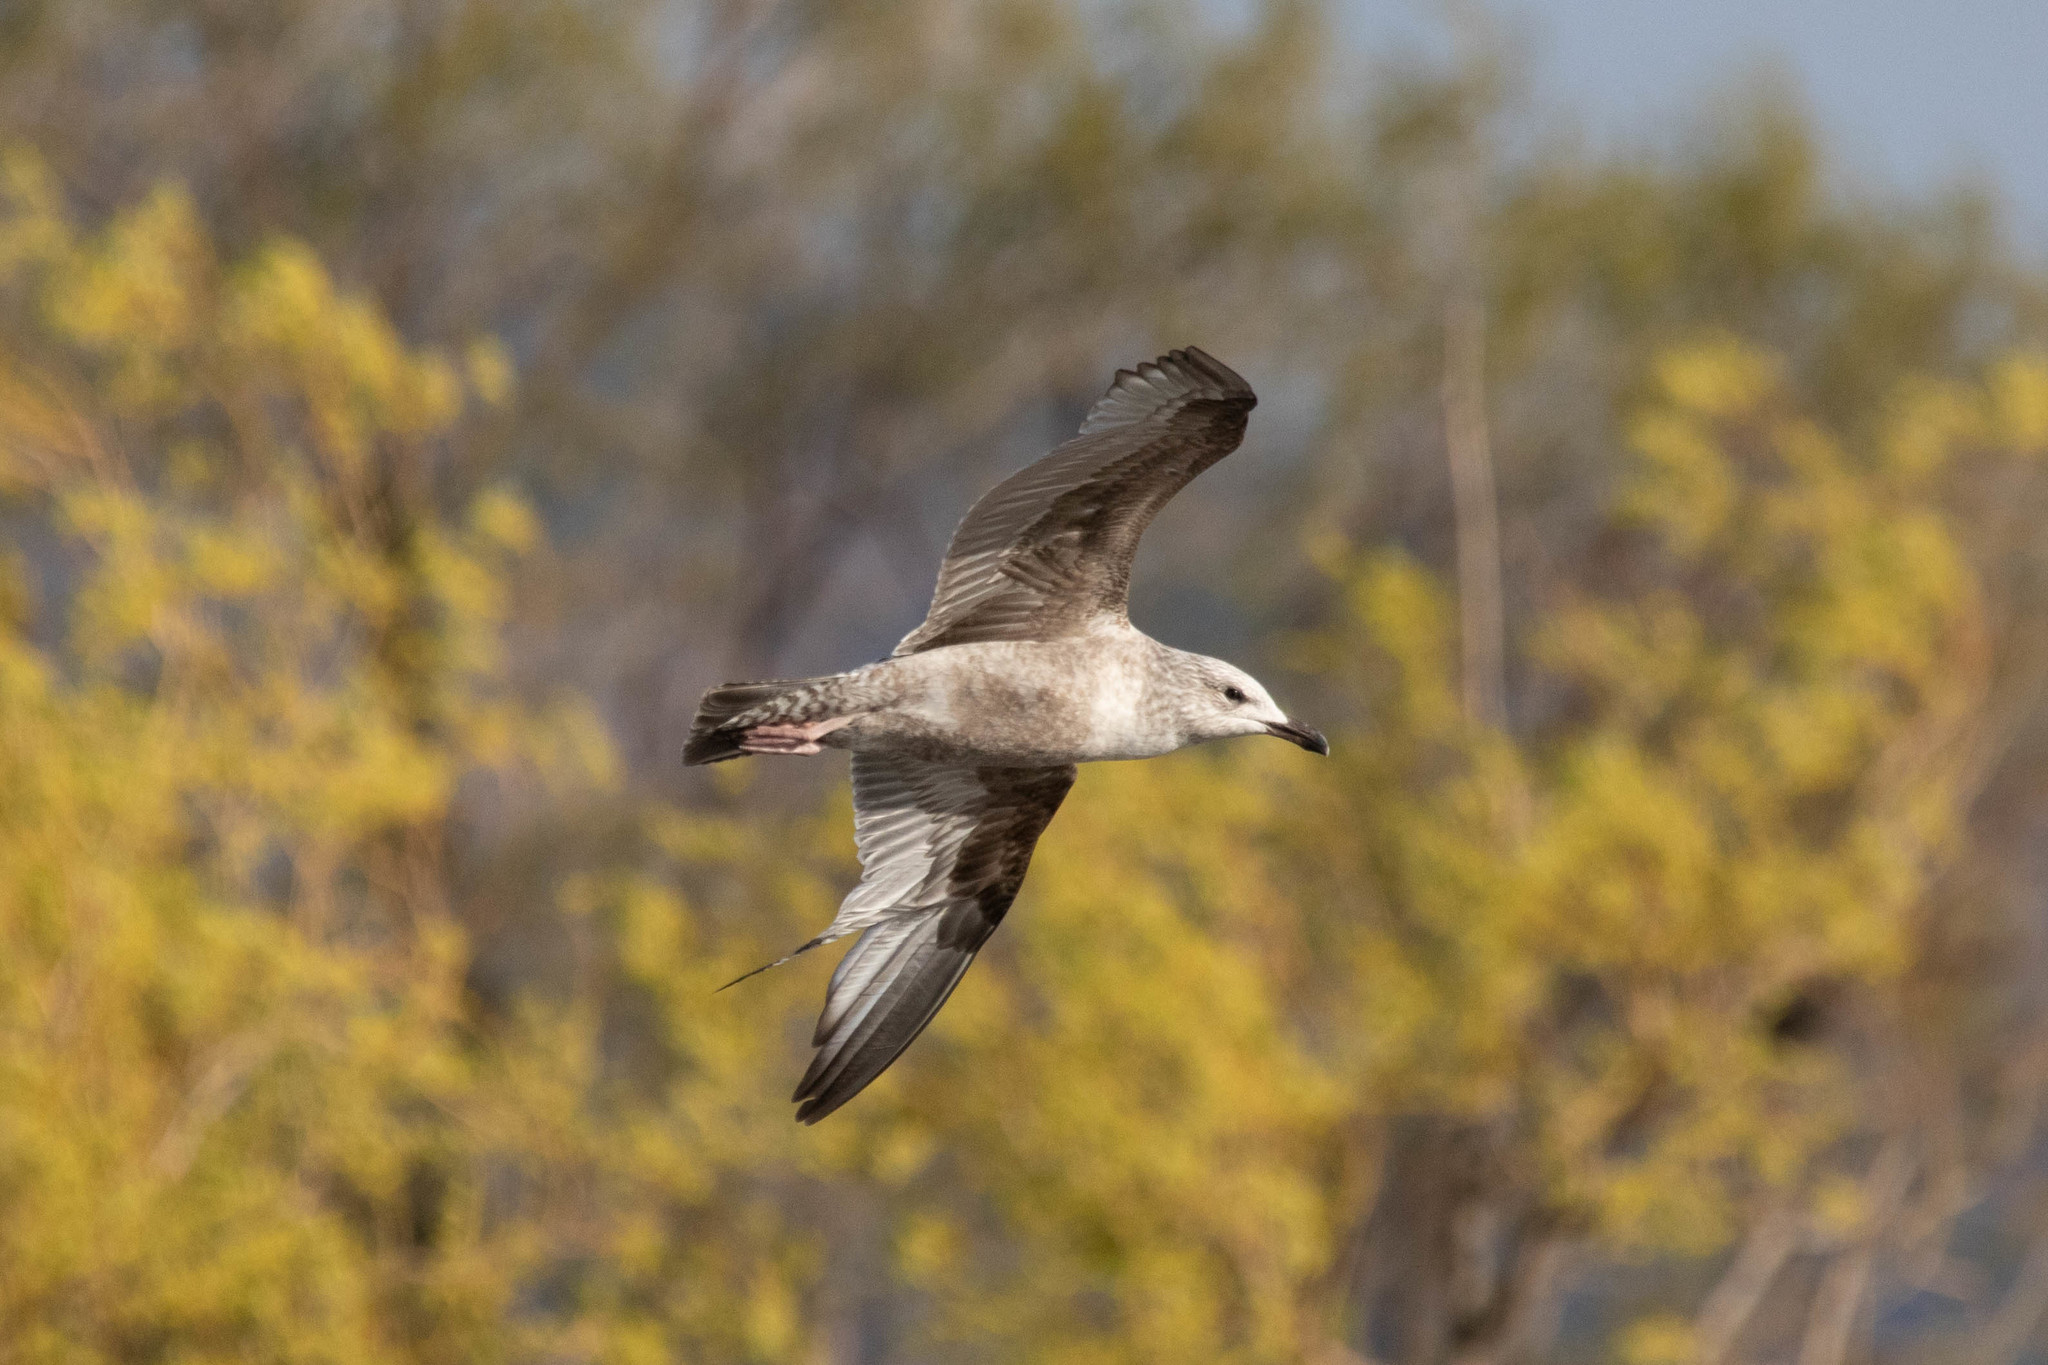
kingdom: Animalia
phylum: Chordata
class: Aves
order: Charadriiformes
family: Laridae
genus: Larus
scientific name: Larus argentatus
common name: Herring gull
